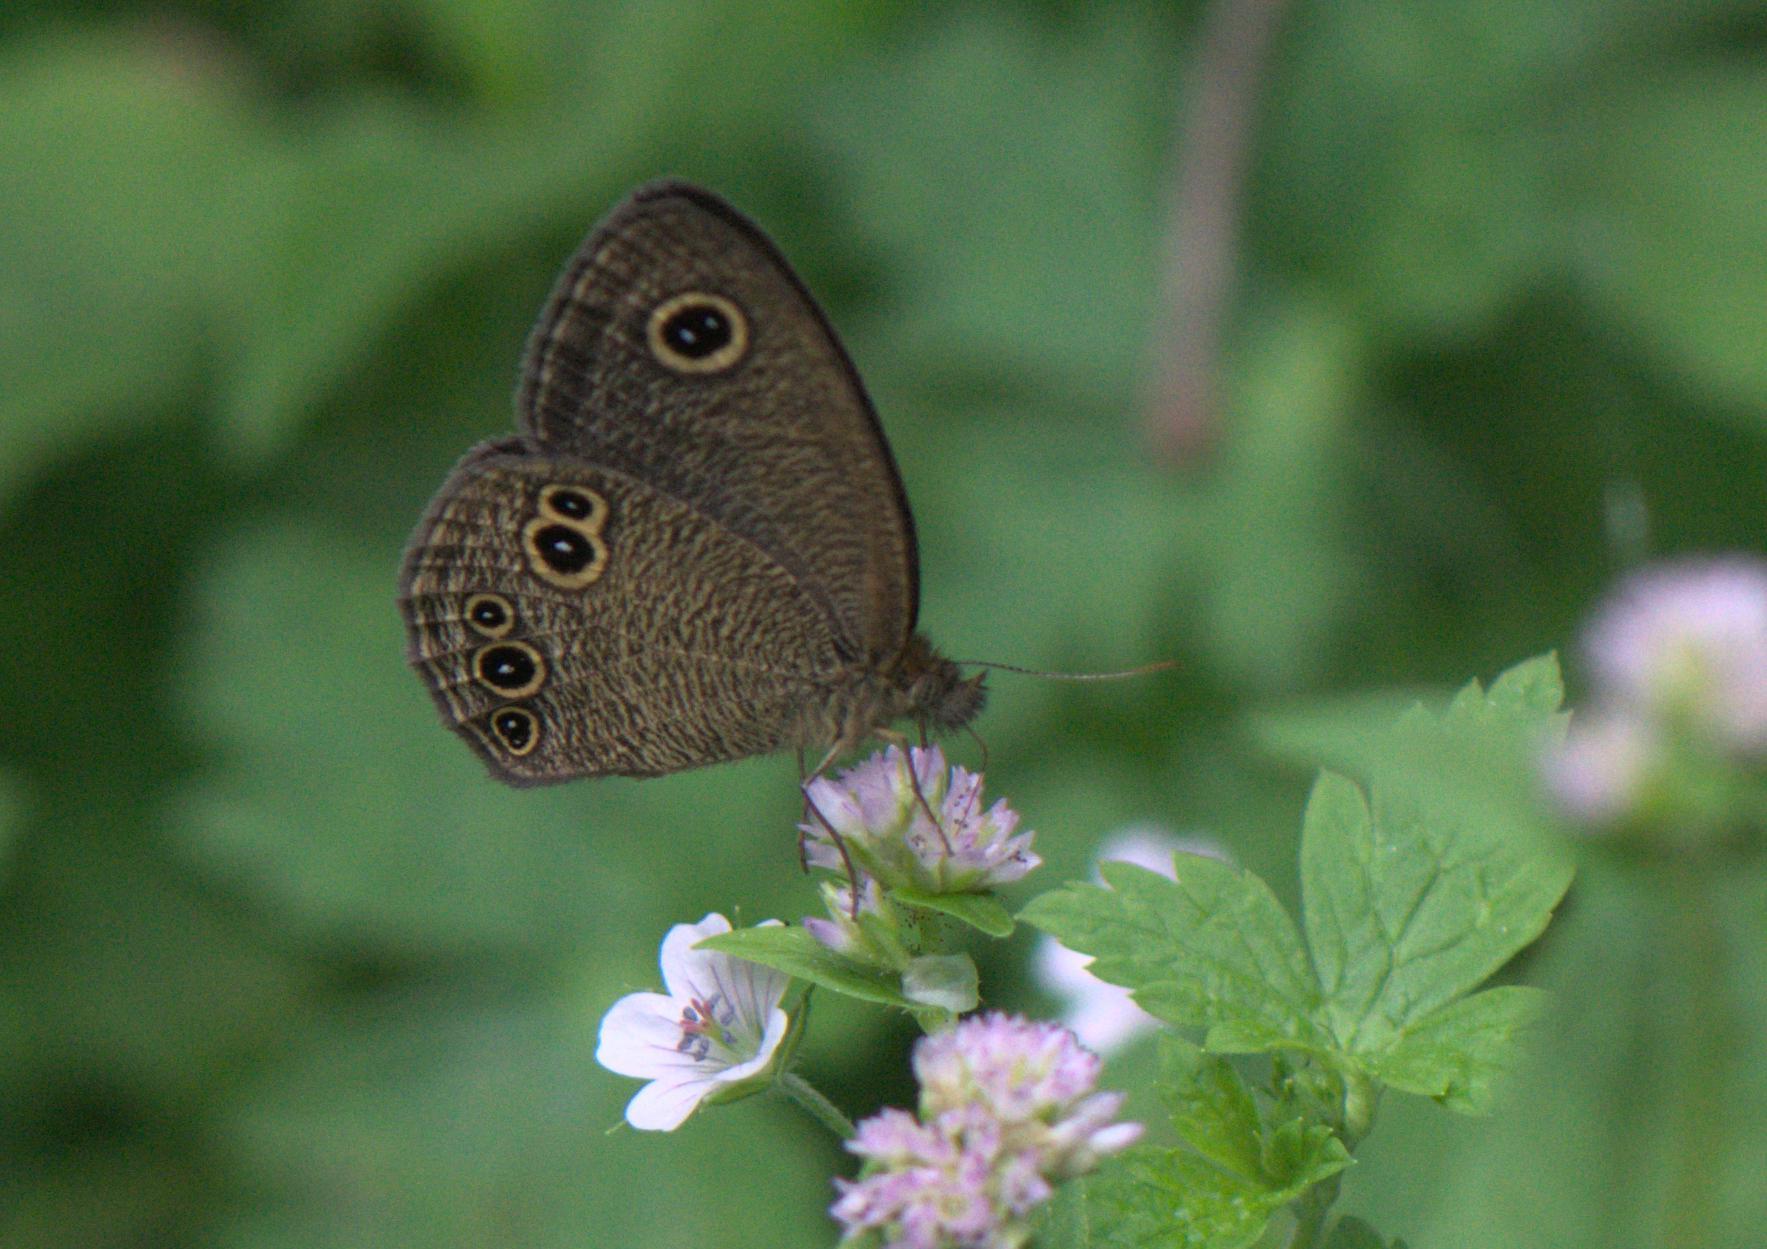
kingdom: Animalia
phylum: Arthropoda
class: Insecta
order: Lepidoptera
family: Nymphalidae
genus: Ypthima
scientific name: Ypthima nikaea
